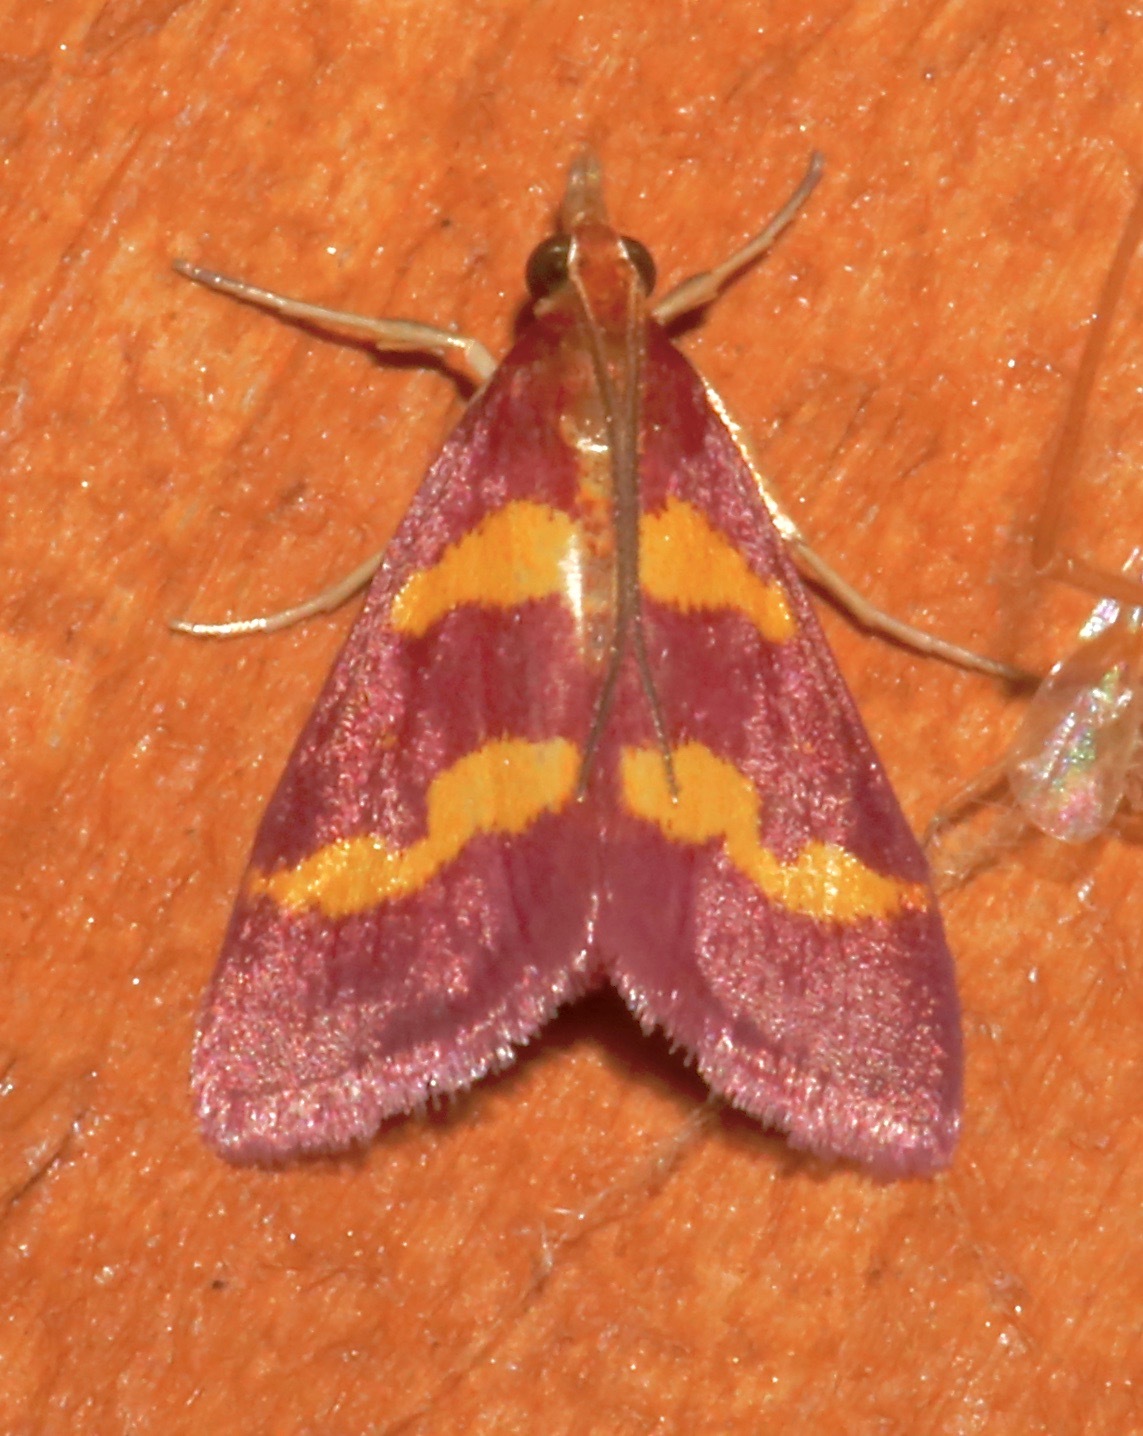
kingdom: Animalia
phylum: Arthropoda
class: Insecta
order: Lepidoptera
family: Crambidae
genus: Pyrausta
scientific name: Pyrausta tyralis
